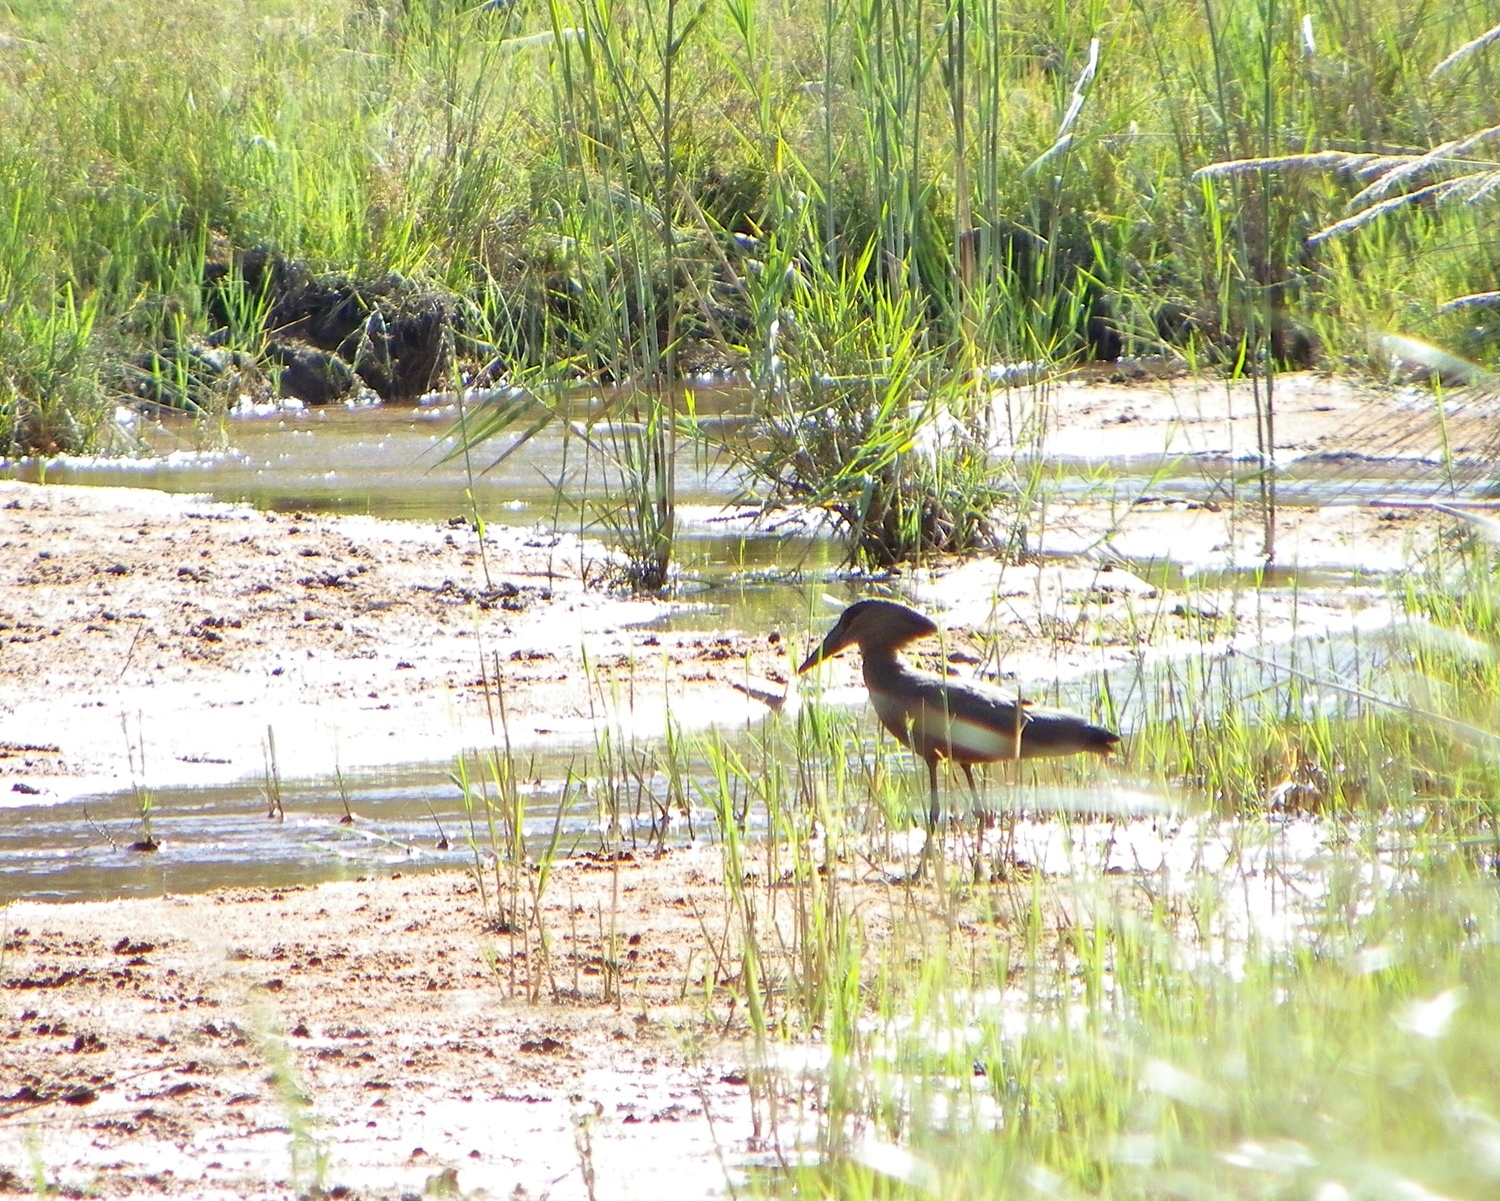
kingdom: Animalia
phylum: Chordata
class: Aves
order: Pelecaniformes
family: Scopidae
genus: Scopus
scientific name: Scopus umbretta
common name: Hamerkop
